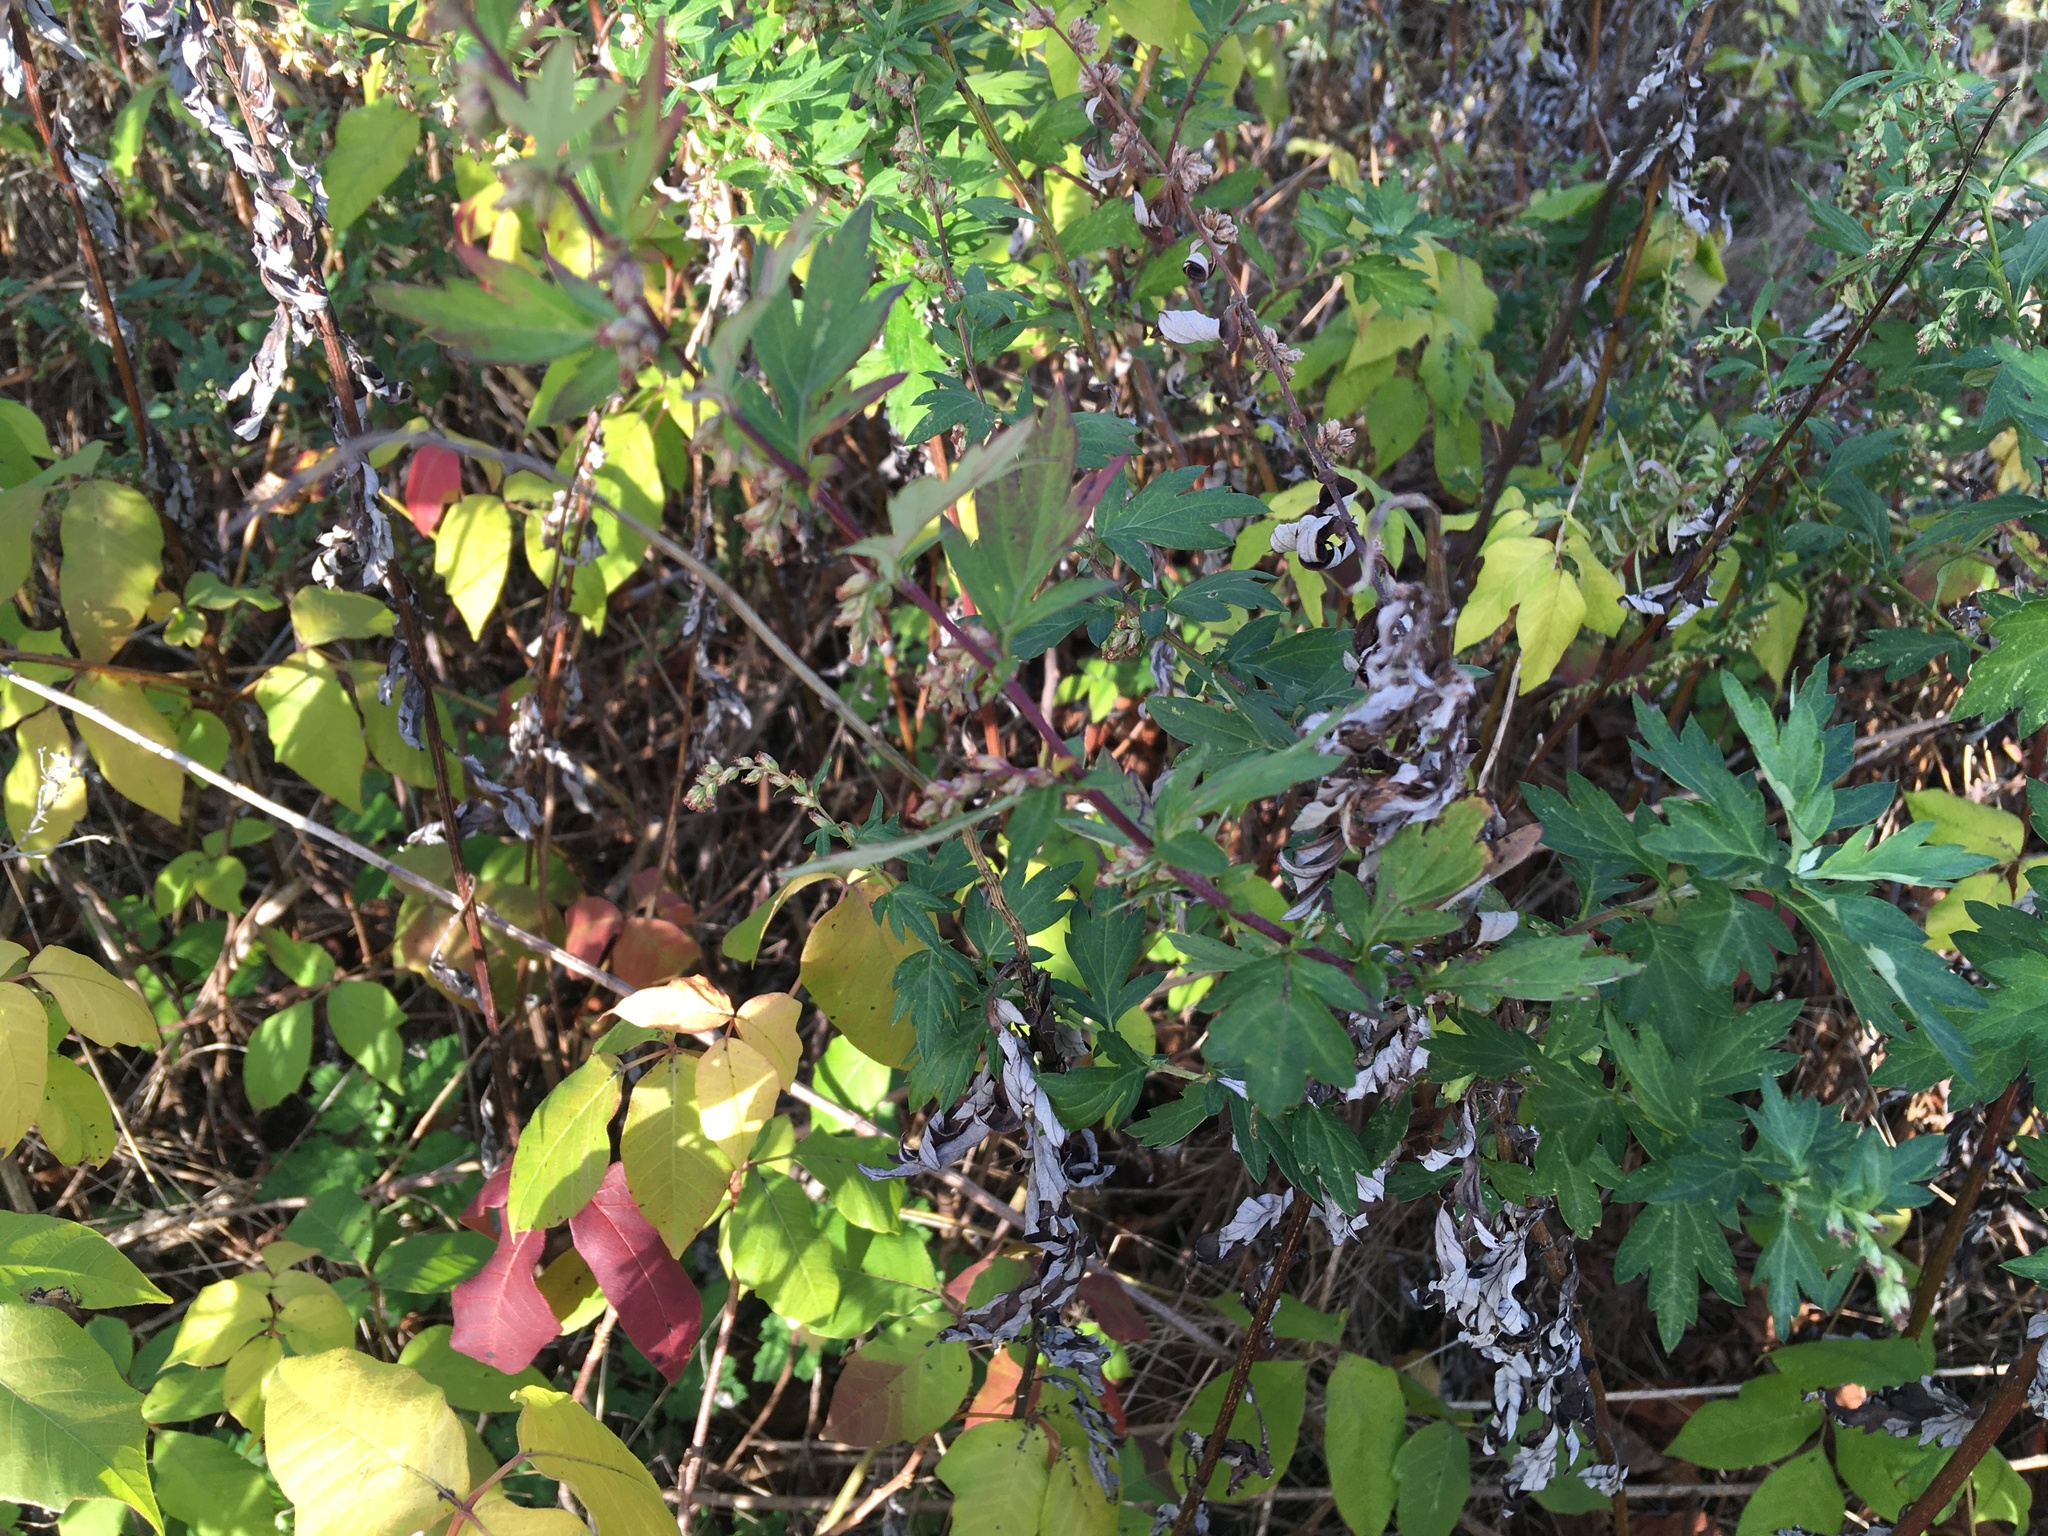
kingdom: Plantae
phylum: Tracheophyta
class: Magnoliopsida
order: Asterales
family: Asteraceae
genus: Artemisia
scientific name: Artemisia vulgaris
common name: Mugwort
